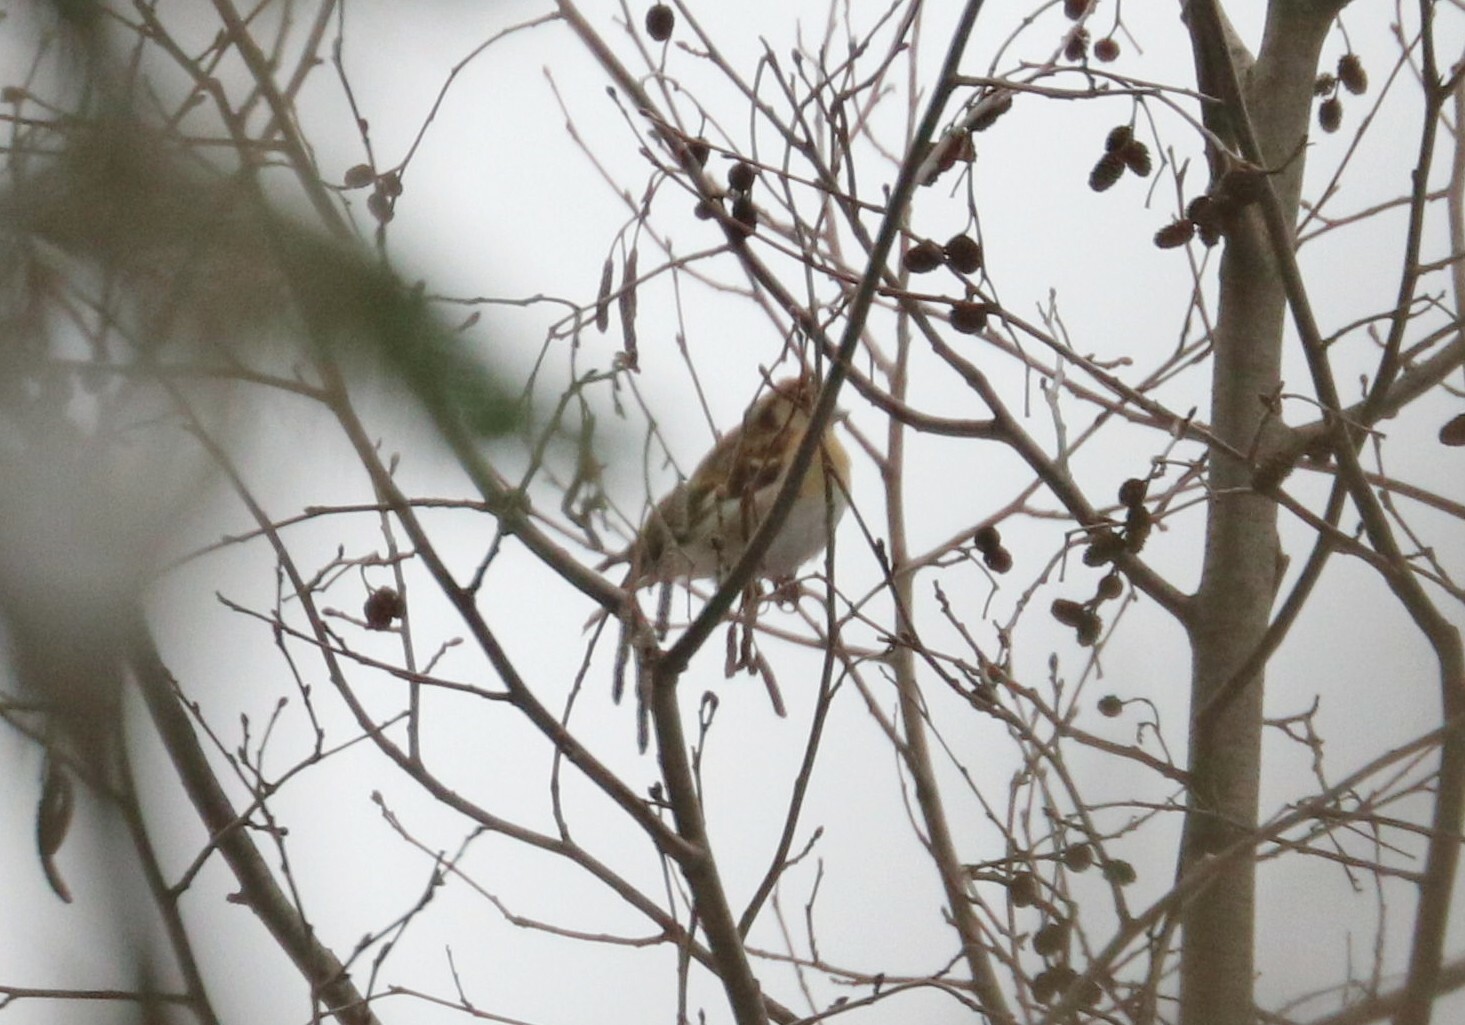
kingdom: Animalia
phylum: Chordata
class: Aves
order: Passeriformes
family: Fringillidae
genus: Fringilla
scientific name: Fringilla montifringilla
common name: Brambling
